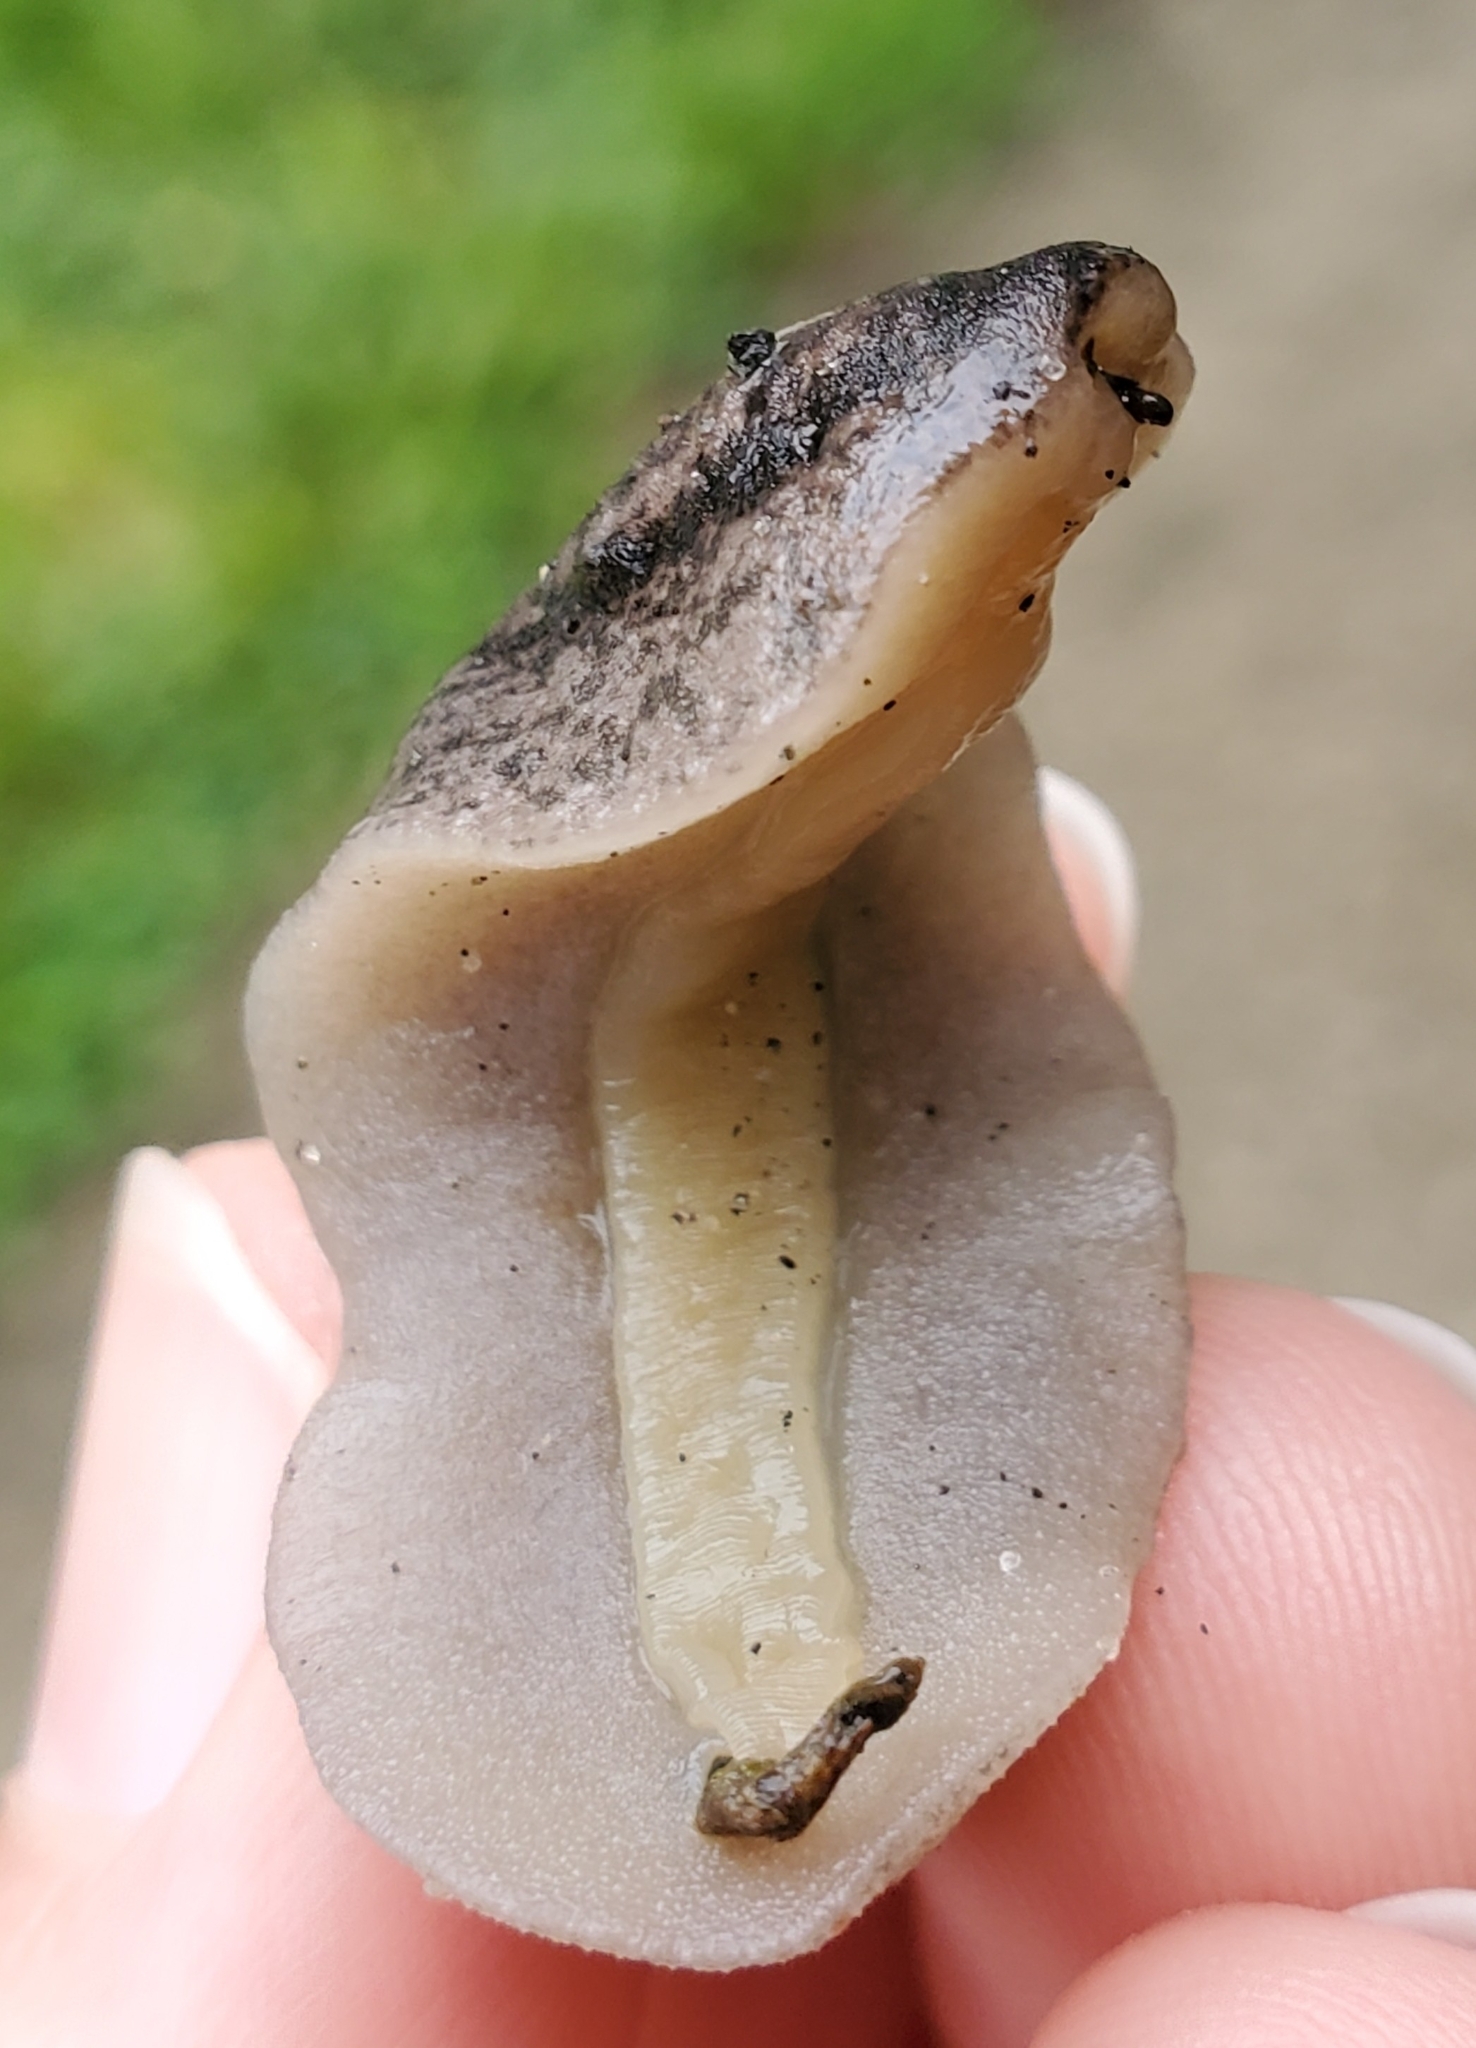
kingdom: Animalia
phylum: Mollusca
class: Gastropoda
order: Systellommatophora
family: Veronicellidae
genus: Leidyula
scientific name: Leidyula floridana
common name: Florida leatherleaf
